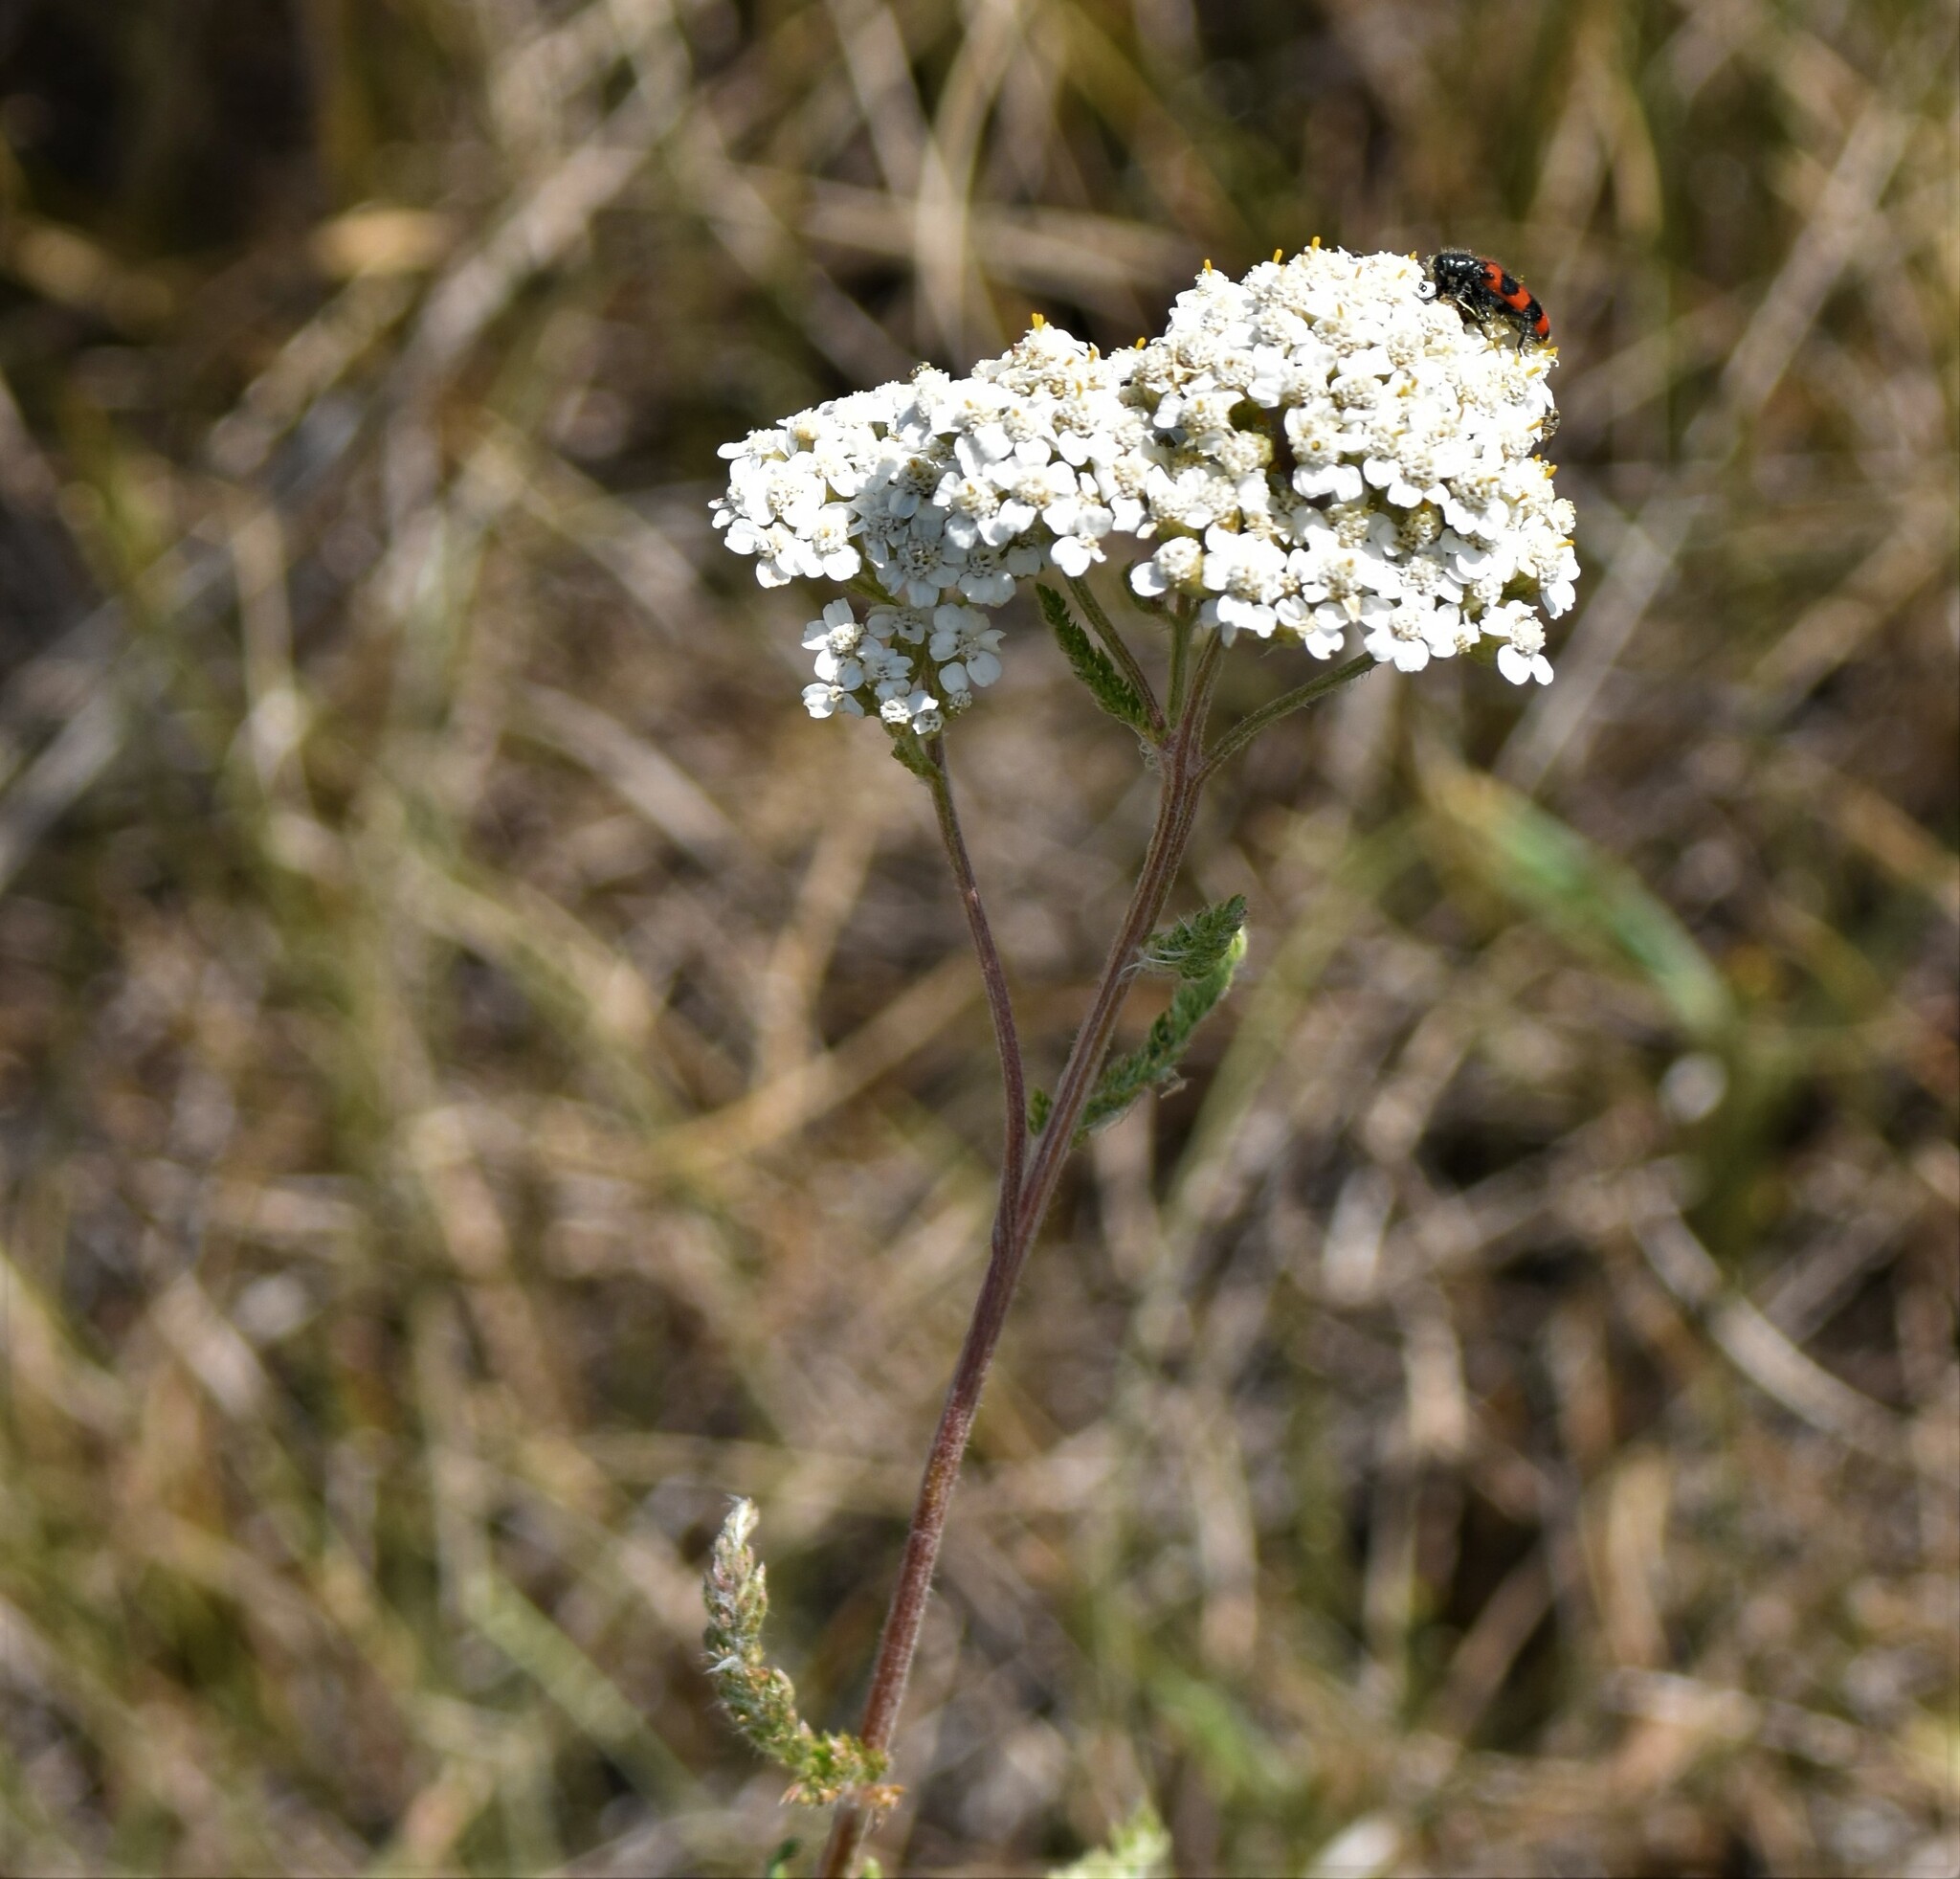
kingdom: Plantae
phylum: Tracheophyta
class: Magnoliopsida
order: Asterales
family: Asteraceae
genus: Achillea
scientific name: Achillea millefolium
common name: Yarrow
